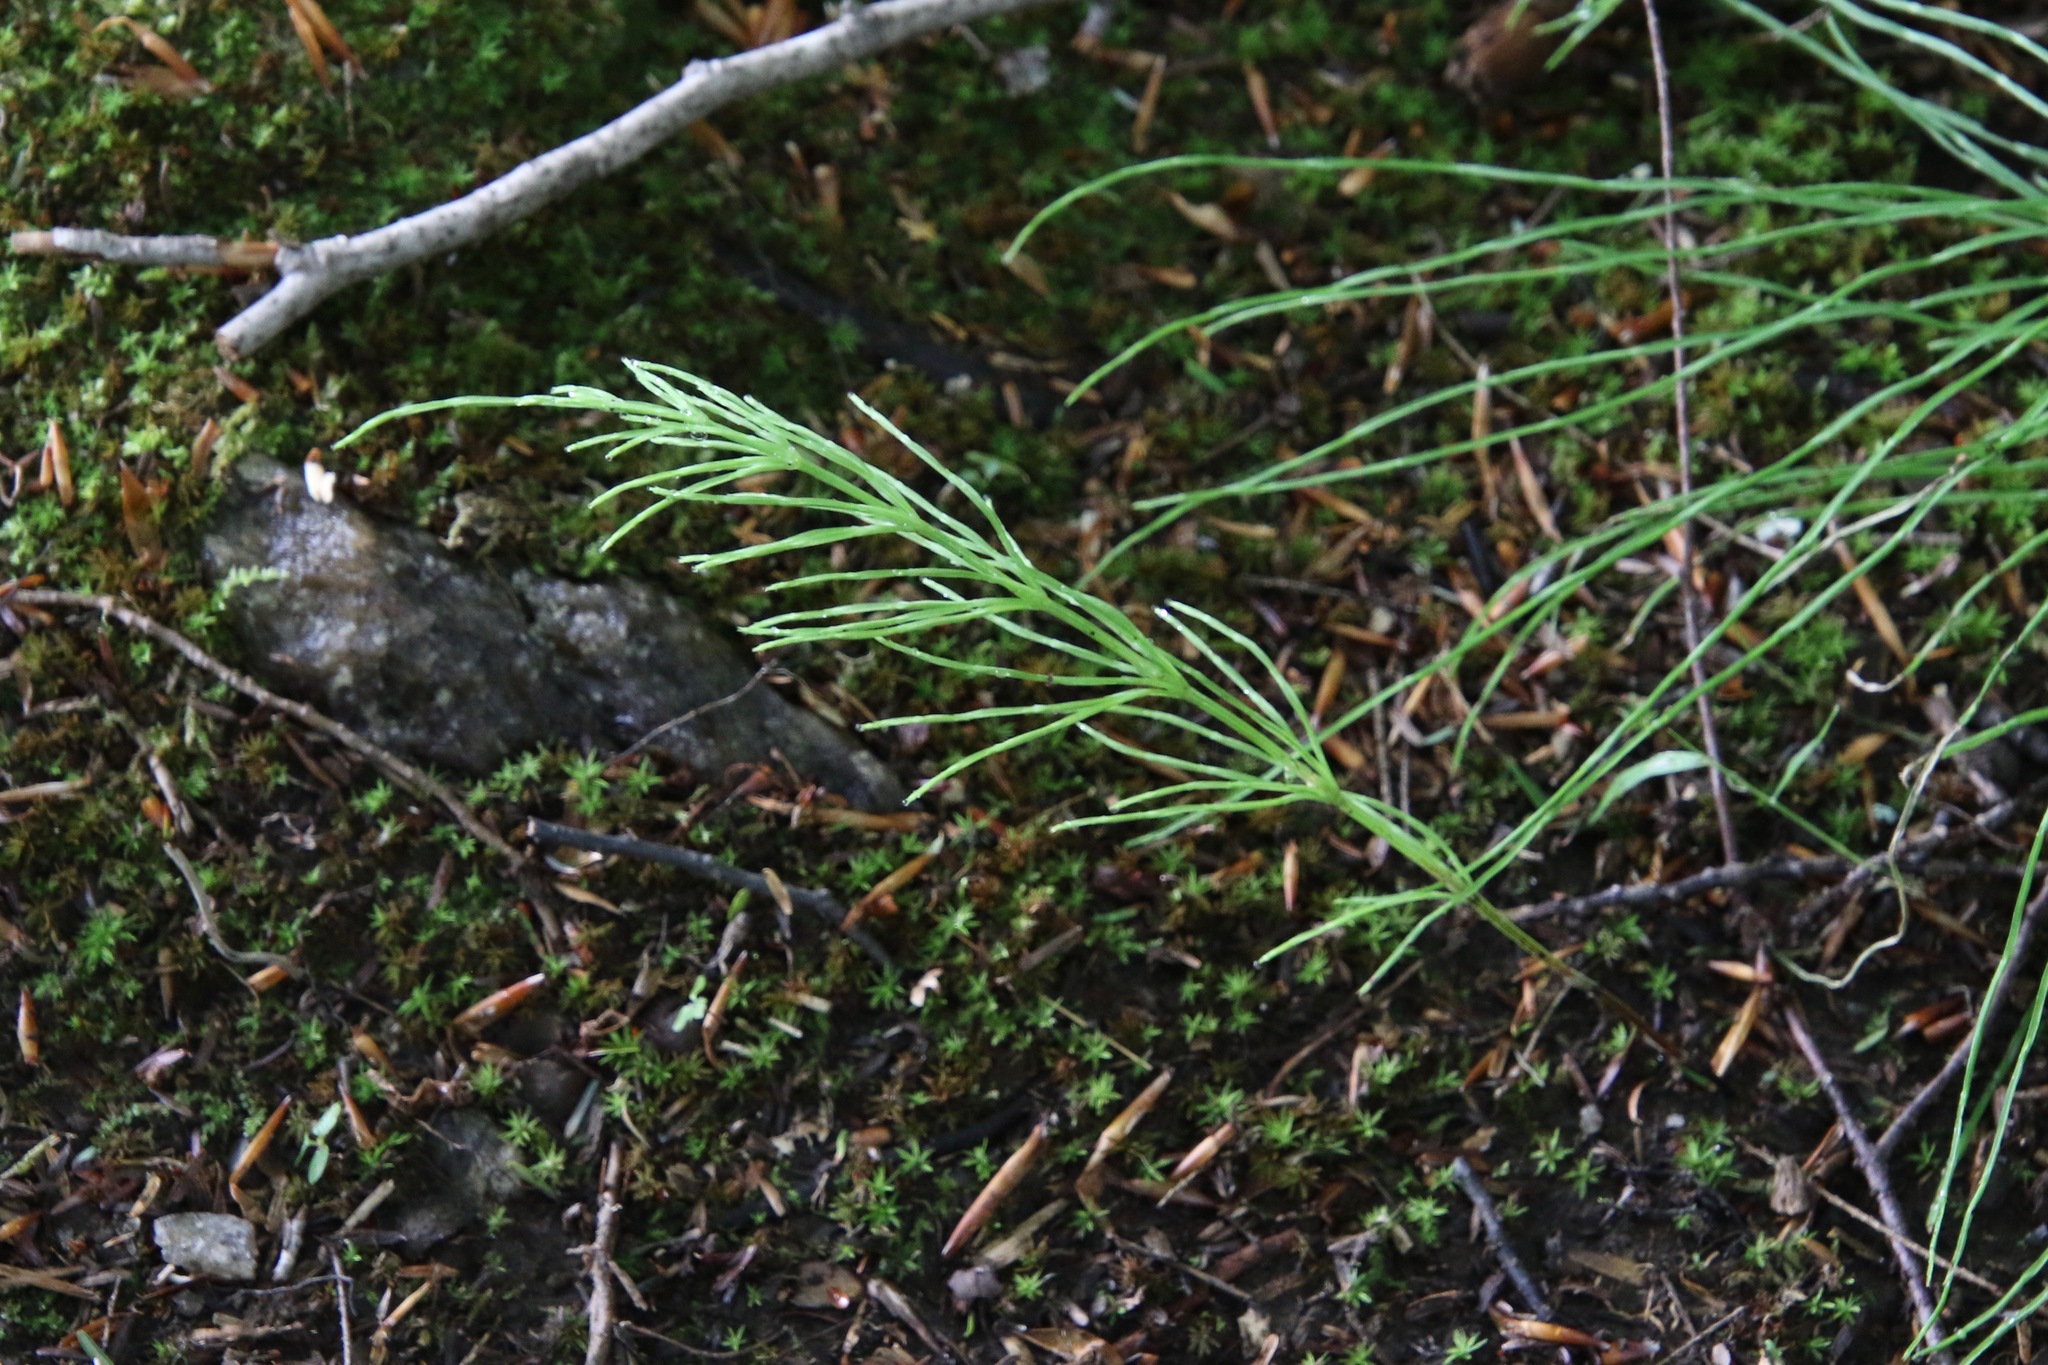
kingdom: Plantae
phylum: Tracheophyta
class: Polypodiopsida
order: Equisetales
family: Equisetaceae
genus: Equisetum
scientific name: Equisetum arvense
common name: Field horsetail
